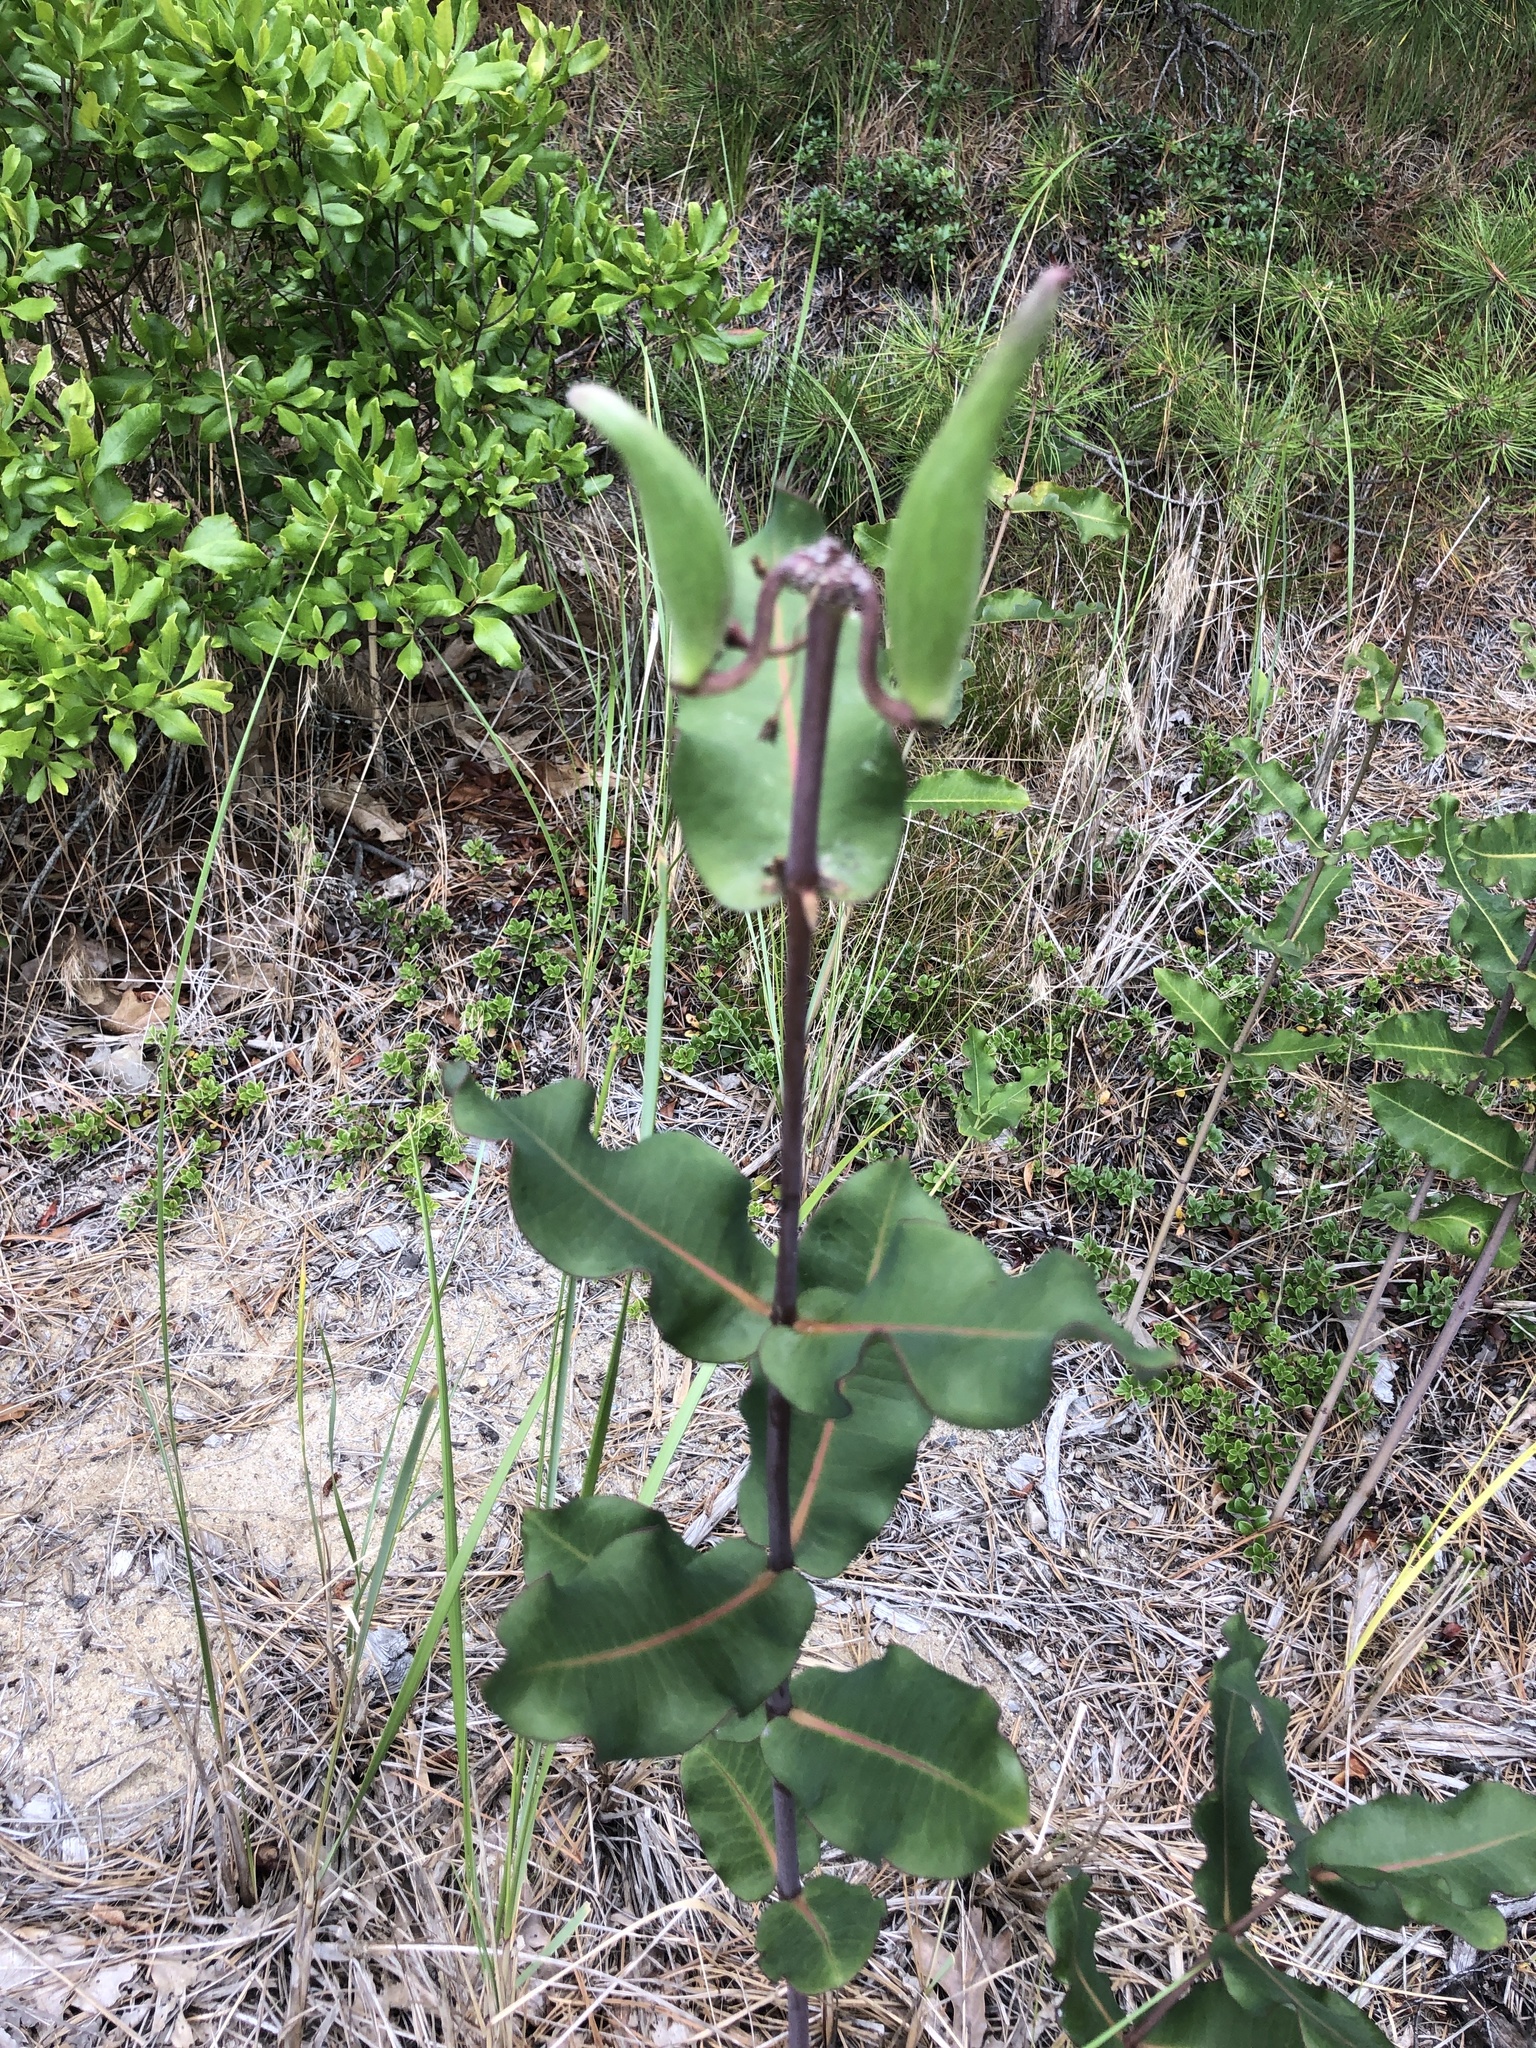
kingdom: Plantae
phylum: Tracheophyta
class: Magnoliopsida
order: Gentianales
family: Apocynaceae
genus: Asclepias
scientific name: Asclepias amplexicaulis
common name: Blunt-leaf milkweed
